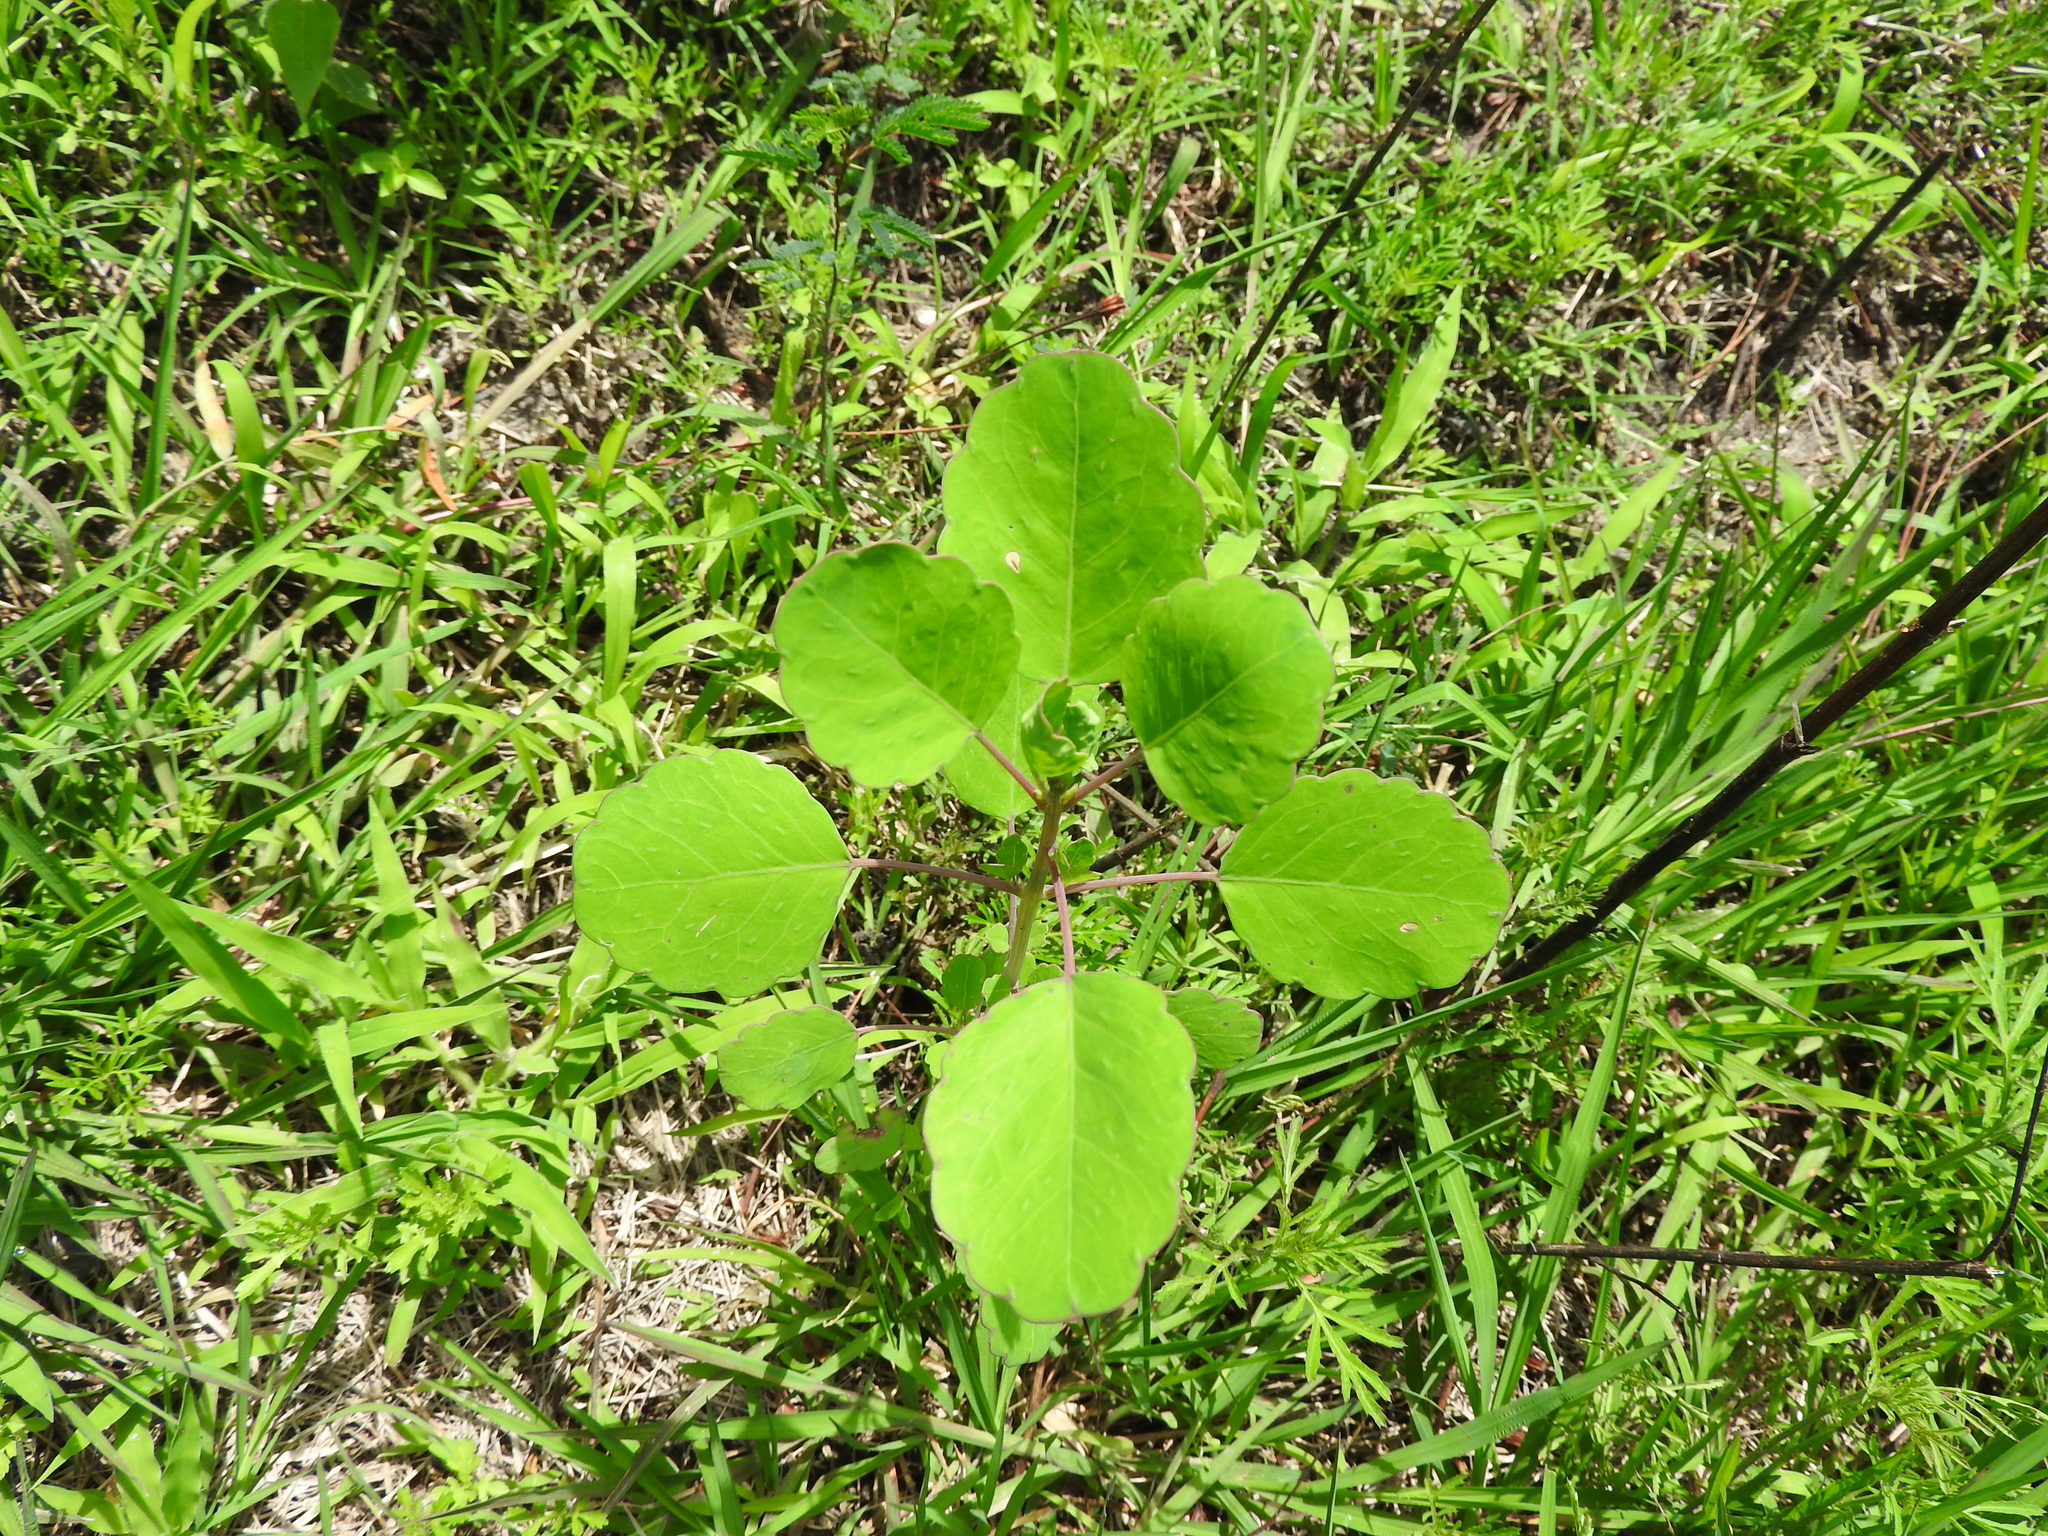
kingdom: Plantae
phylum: Tracheophyta
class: Magnoliopsida
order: Asterales
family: Asteraceae
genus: Porophyllum
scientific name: Porophyllum ruderale
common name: Yerba porosa
